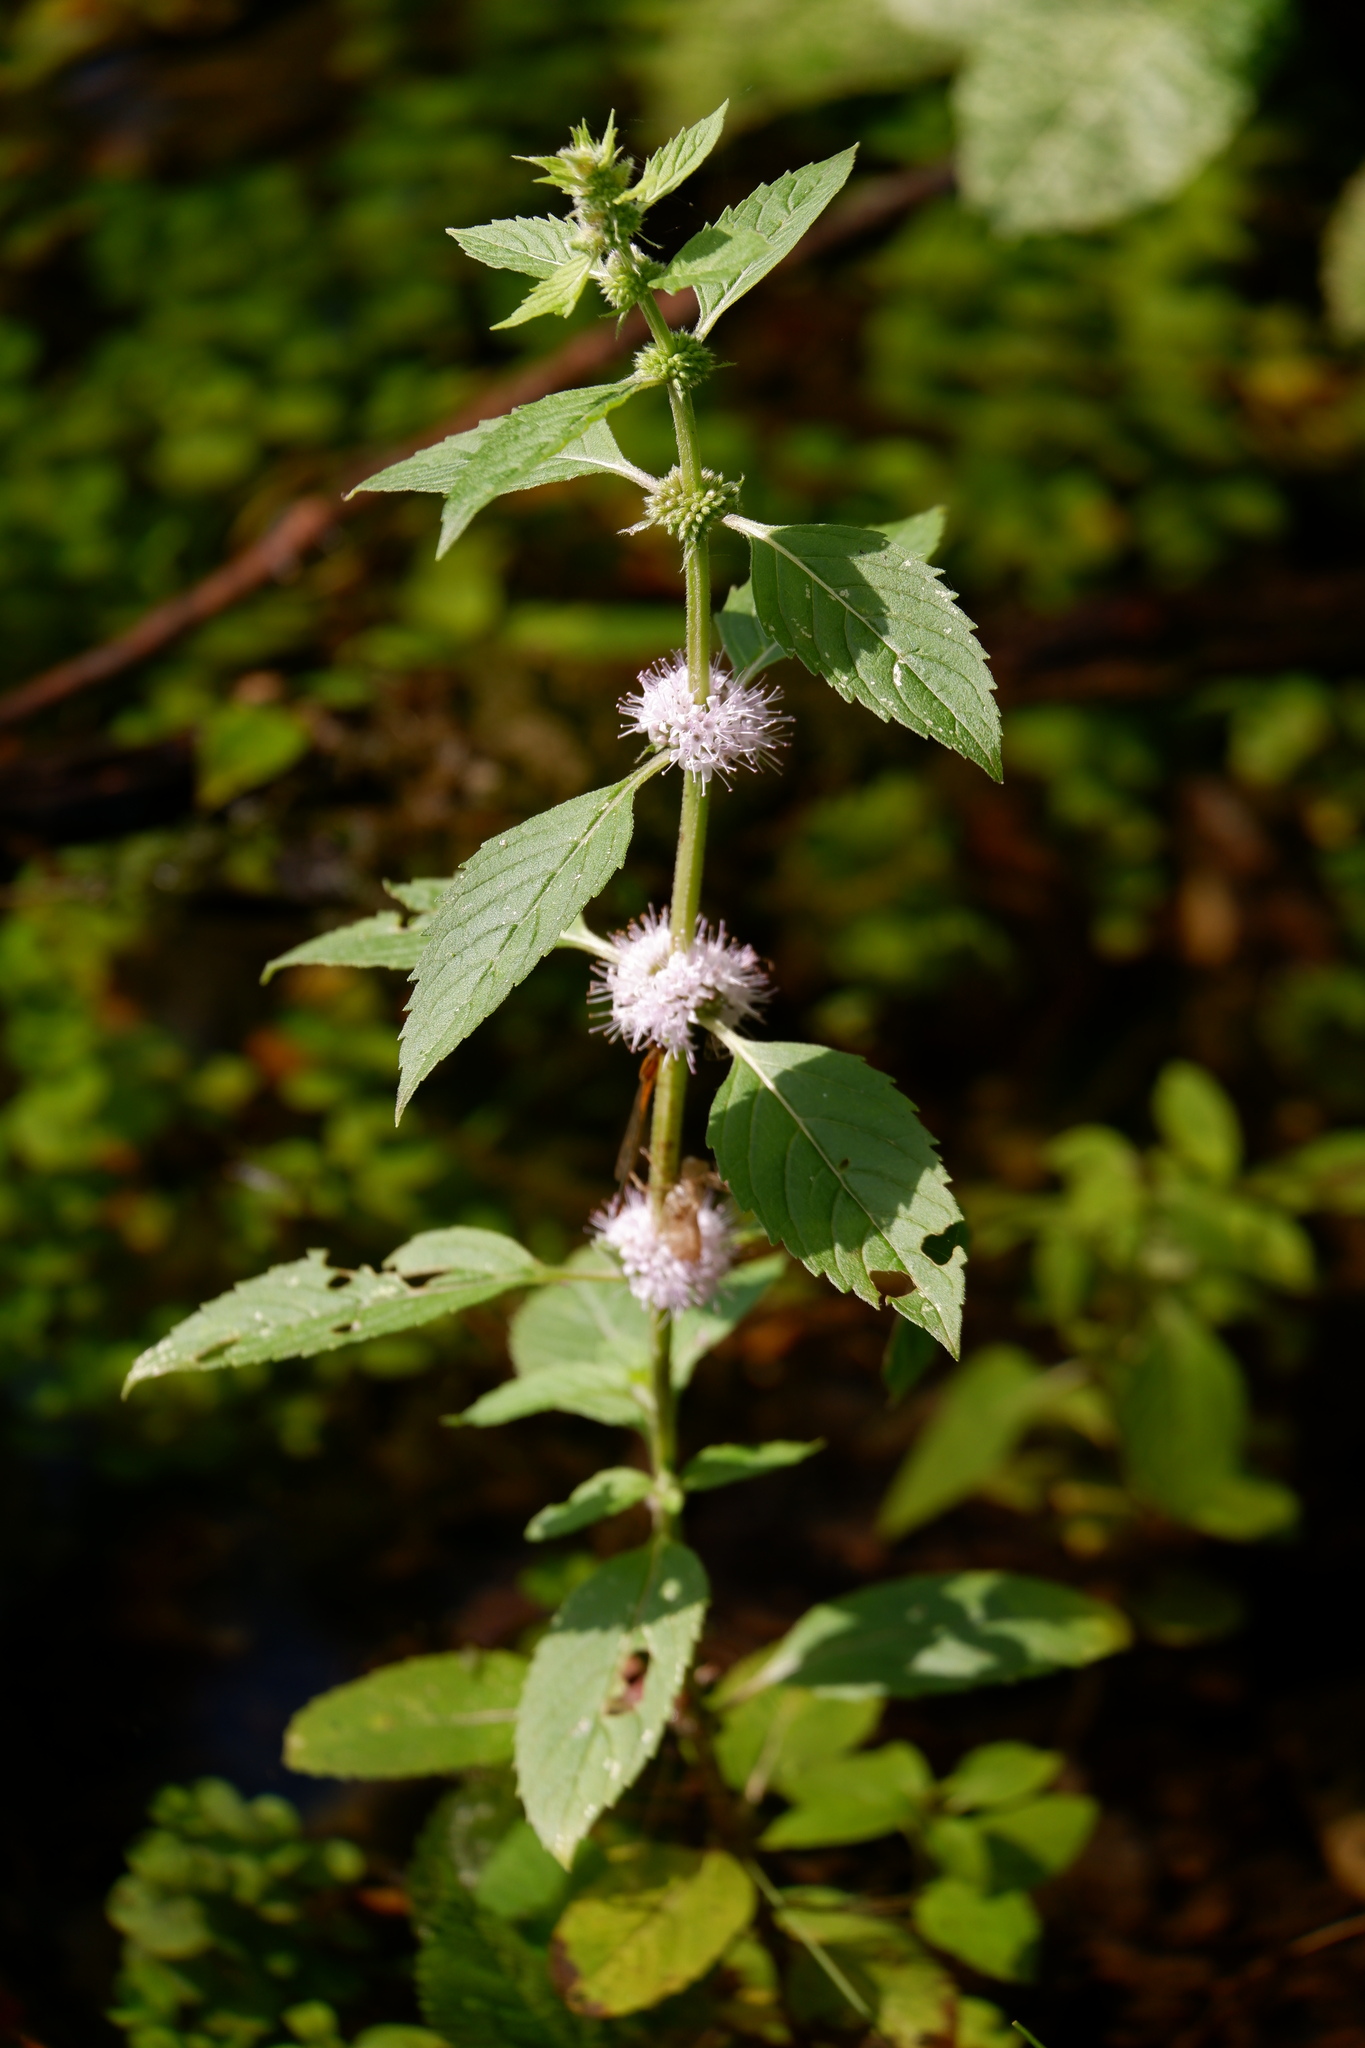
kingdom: Plantae
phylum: Tracheophyta
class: Magnoliopsida
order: Lamiales
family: Lamiaceae
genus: Mentha
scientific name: Mentha canadensis
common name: American corn mint
